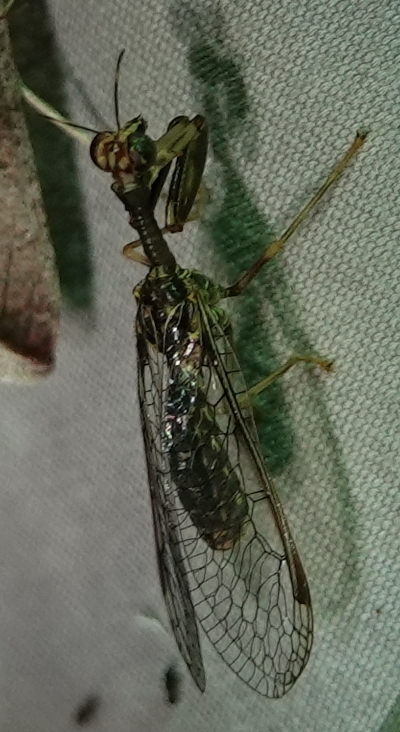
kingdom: Animalia
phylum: Arthropoda
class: Insecta
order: Neuroptera
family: Mantispidae
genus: Dicromantispa
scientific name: Dicromantispa sayi
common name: Say's mantidfly
